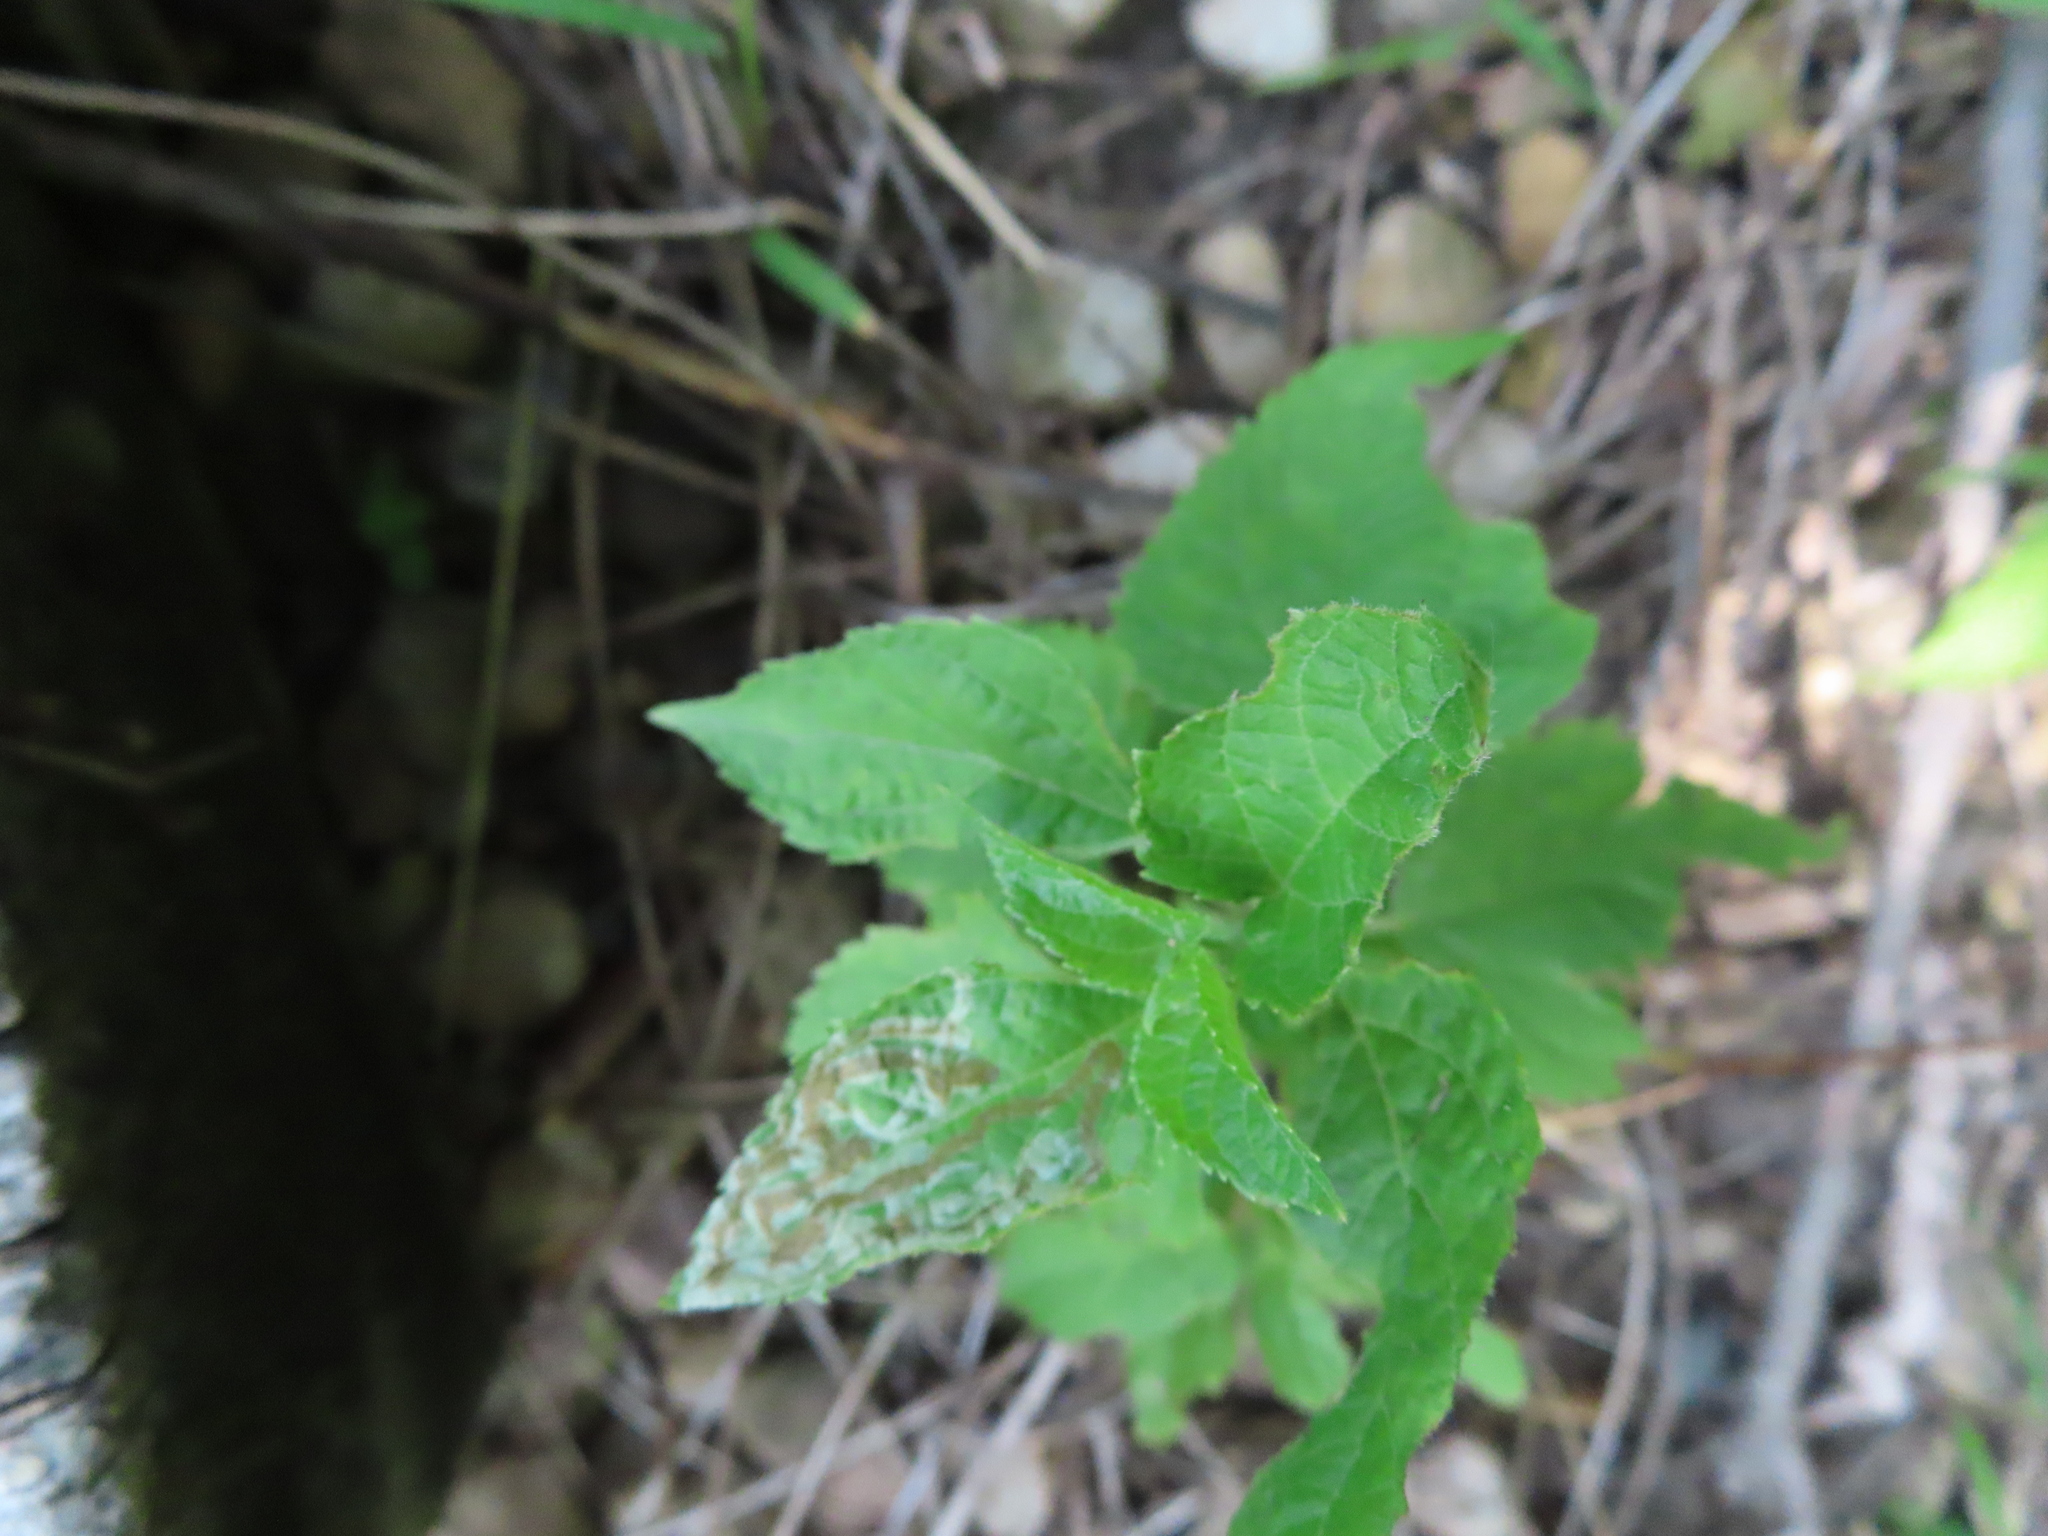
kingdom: Animalia
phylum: Arthropoda
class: Insecta
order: Diptera
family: Agromyzidae
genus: Liriomyza
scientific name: Liriomyza
